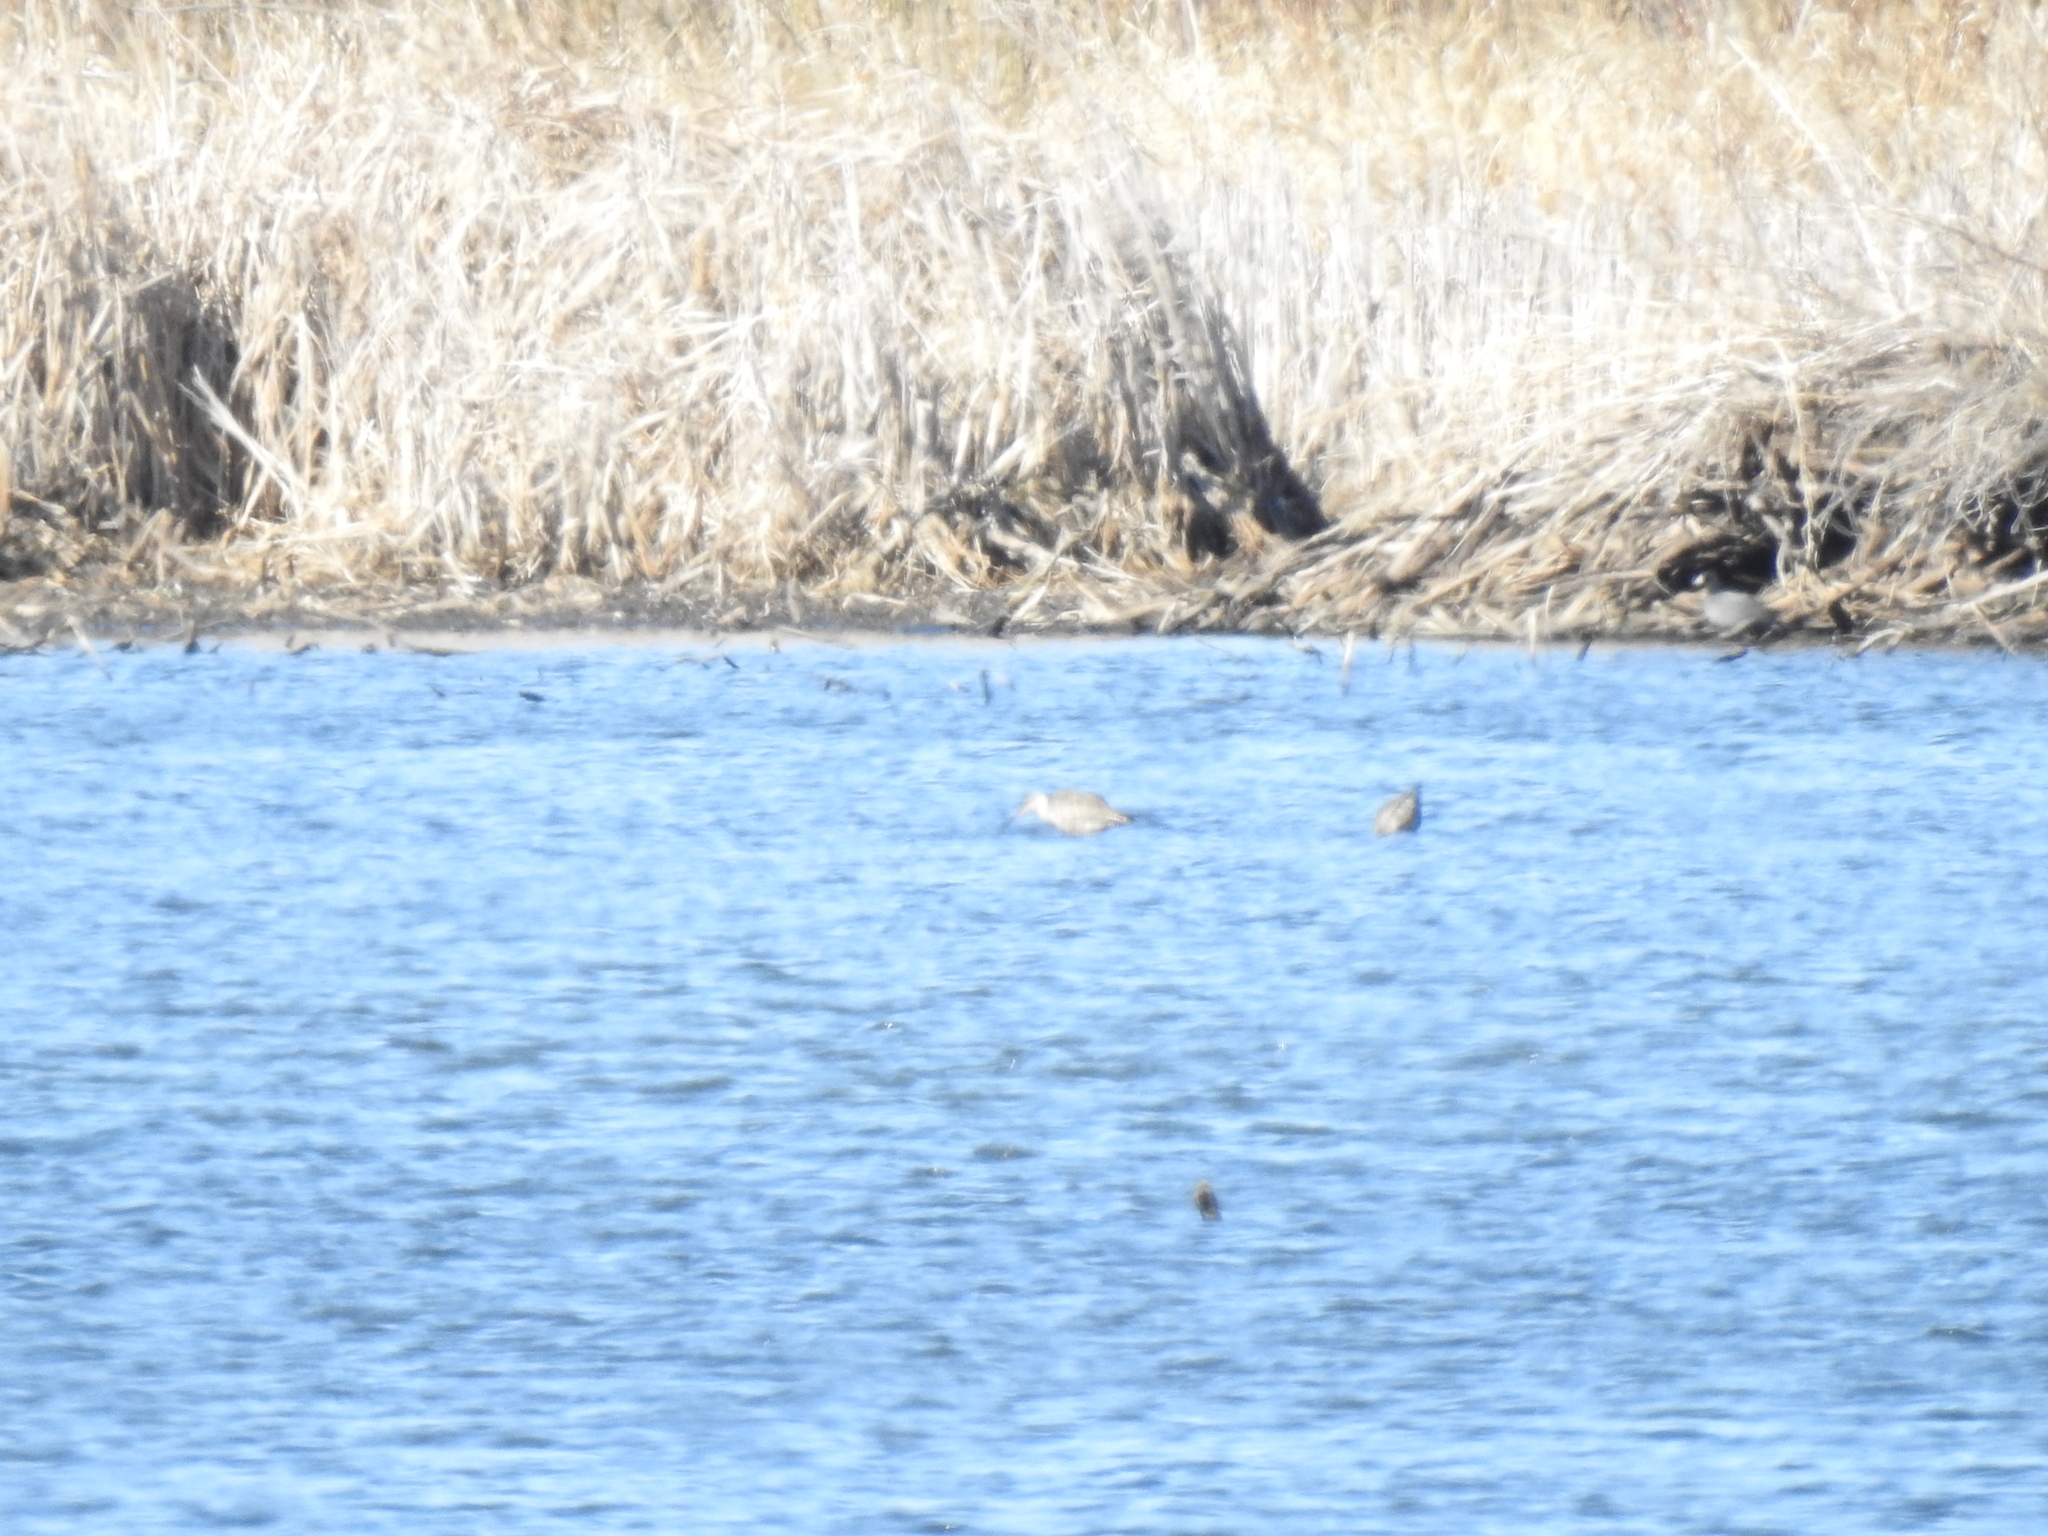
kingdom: Animalia
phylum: Chordata
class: Aves
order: Charadriiformes
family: Scolopacidae
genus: Limosa
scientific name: Limosa haemastica
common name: Hudsonian godwit
